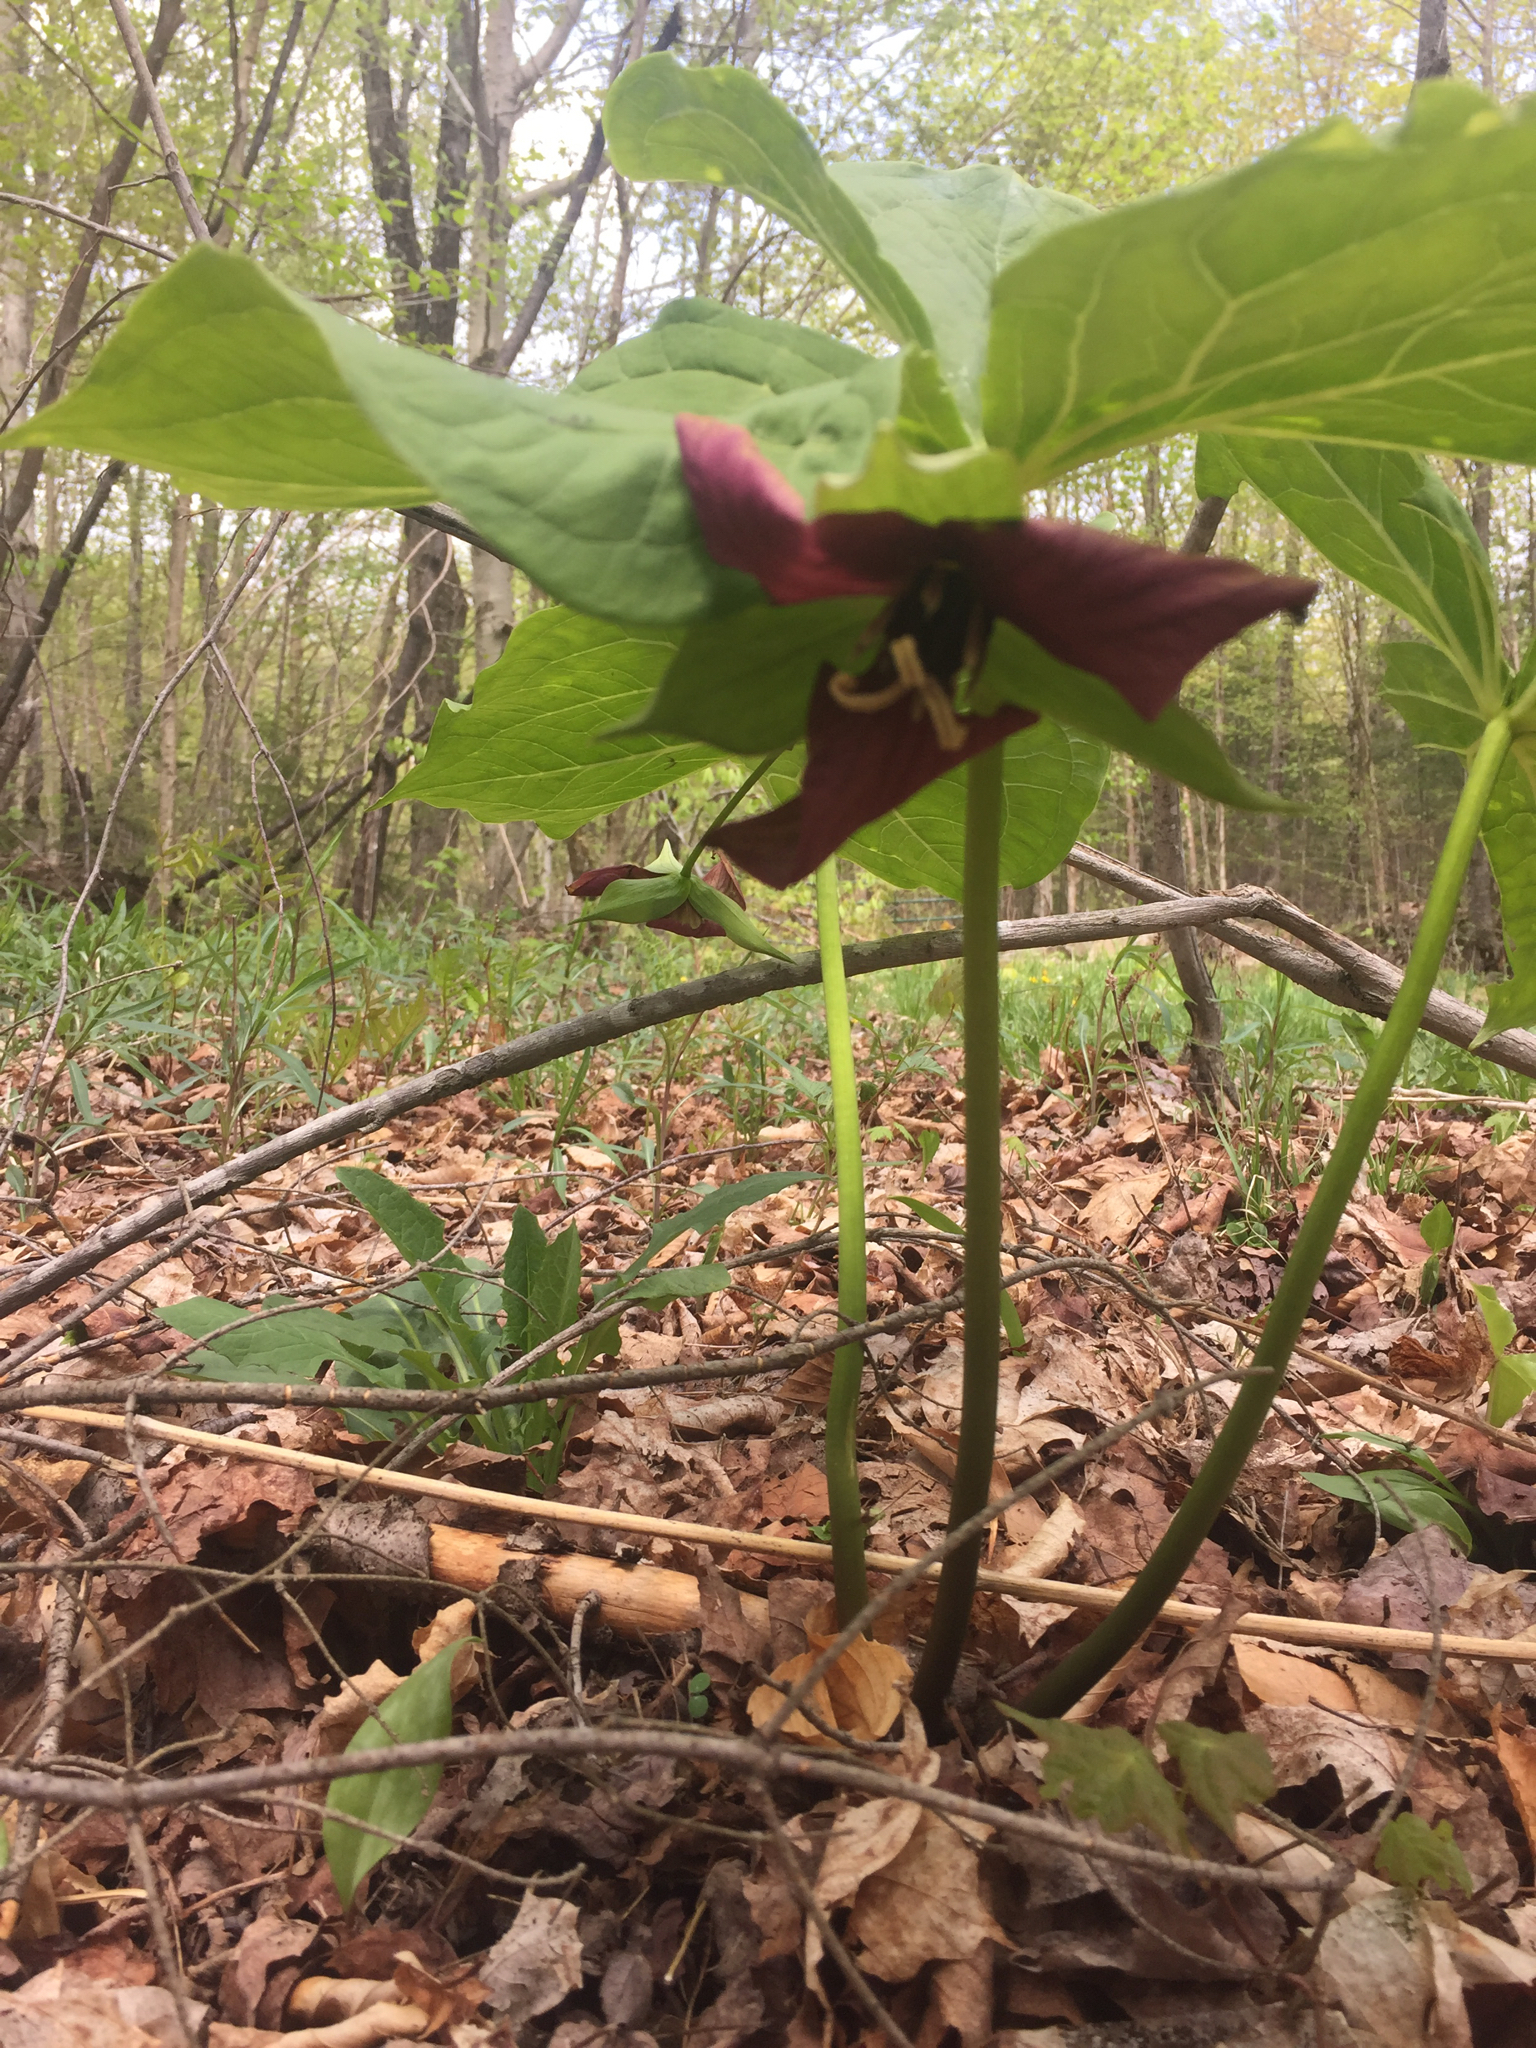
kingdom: Plantae
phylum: Tracheophyta
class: Liliopsida
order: Liliales
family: Melanthiaceae
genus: Trillium
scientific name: Trillium erectum
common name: Purple trillium
